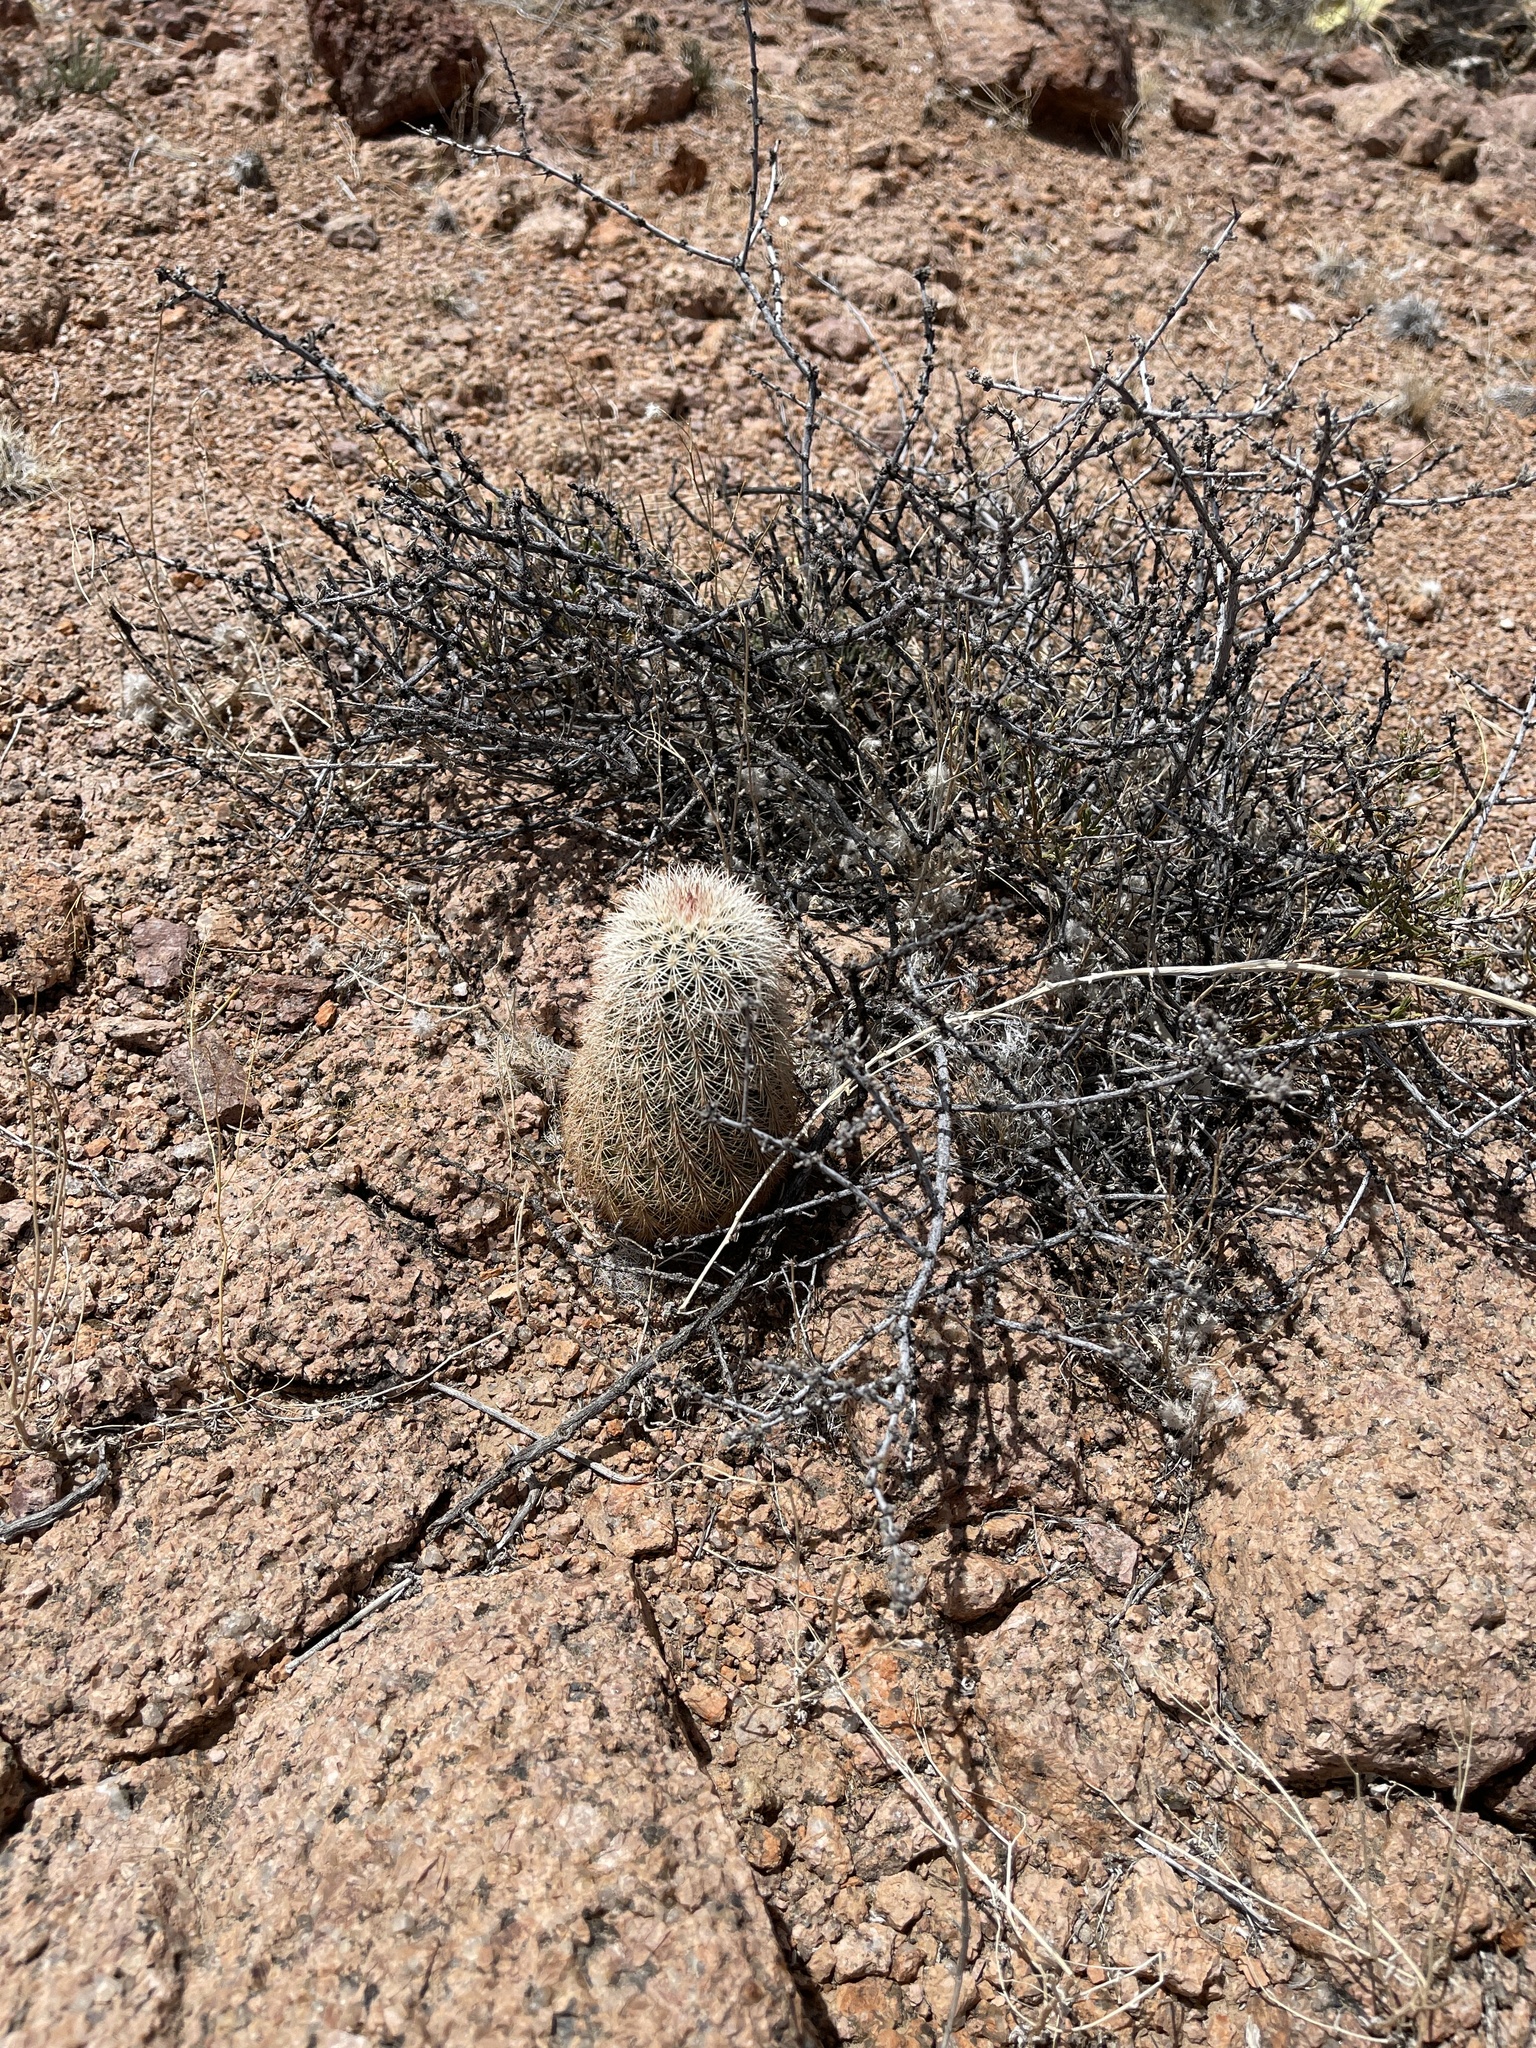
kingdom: Plantae
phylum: Tracheophyta
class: Magnoliopsida
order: Caryophyllales
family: Cactaceae
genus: Echinocereus
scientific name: Echinocereus dasyacanthus
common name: Spiny hedgehog cactus
